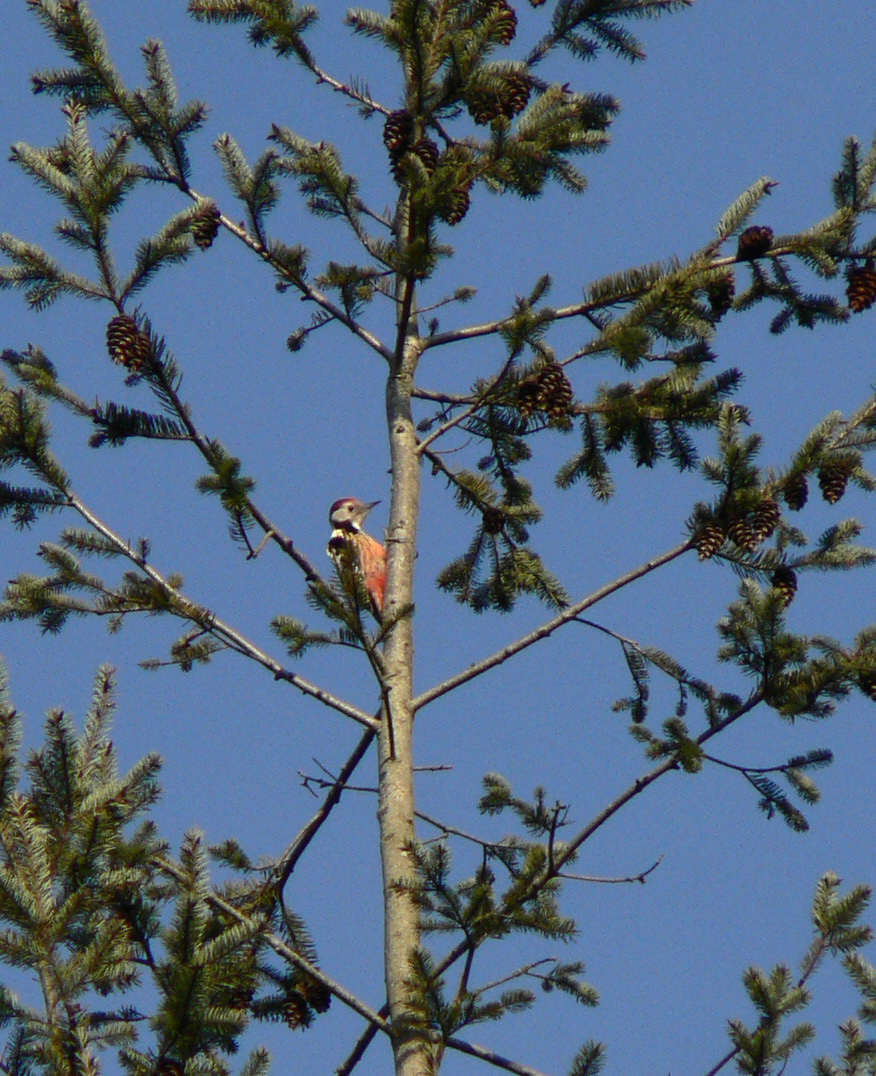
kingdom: Animalia
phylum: Chordata
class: Aves
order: Piciformes
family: Picidae
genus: Dendrocoptes
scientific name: Dendrocoptes medius
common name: Middle spotted woodpecker
